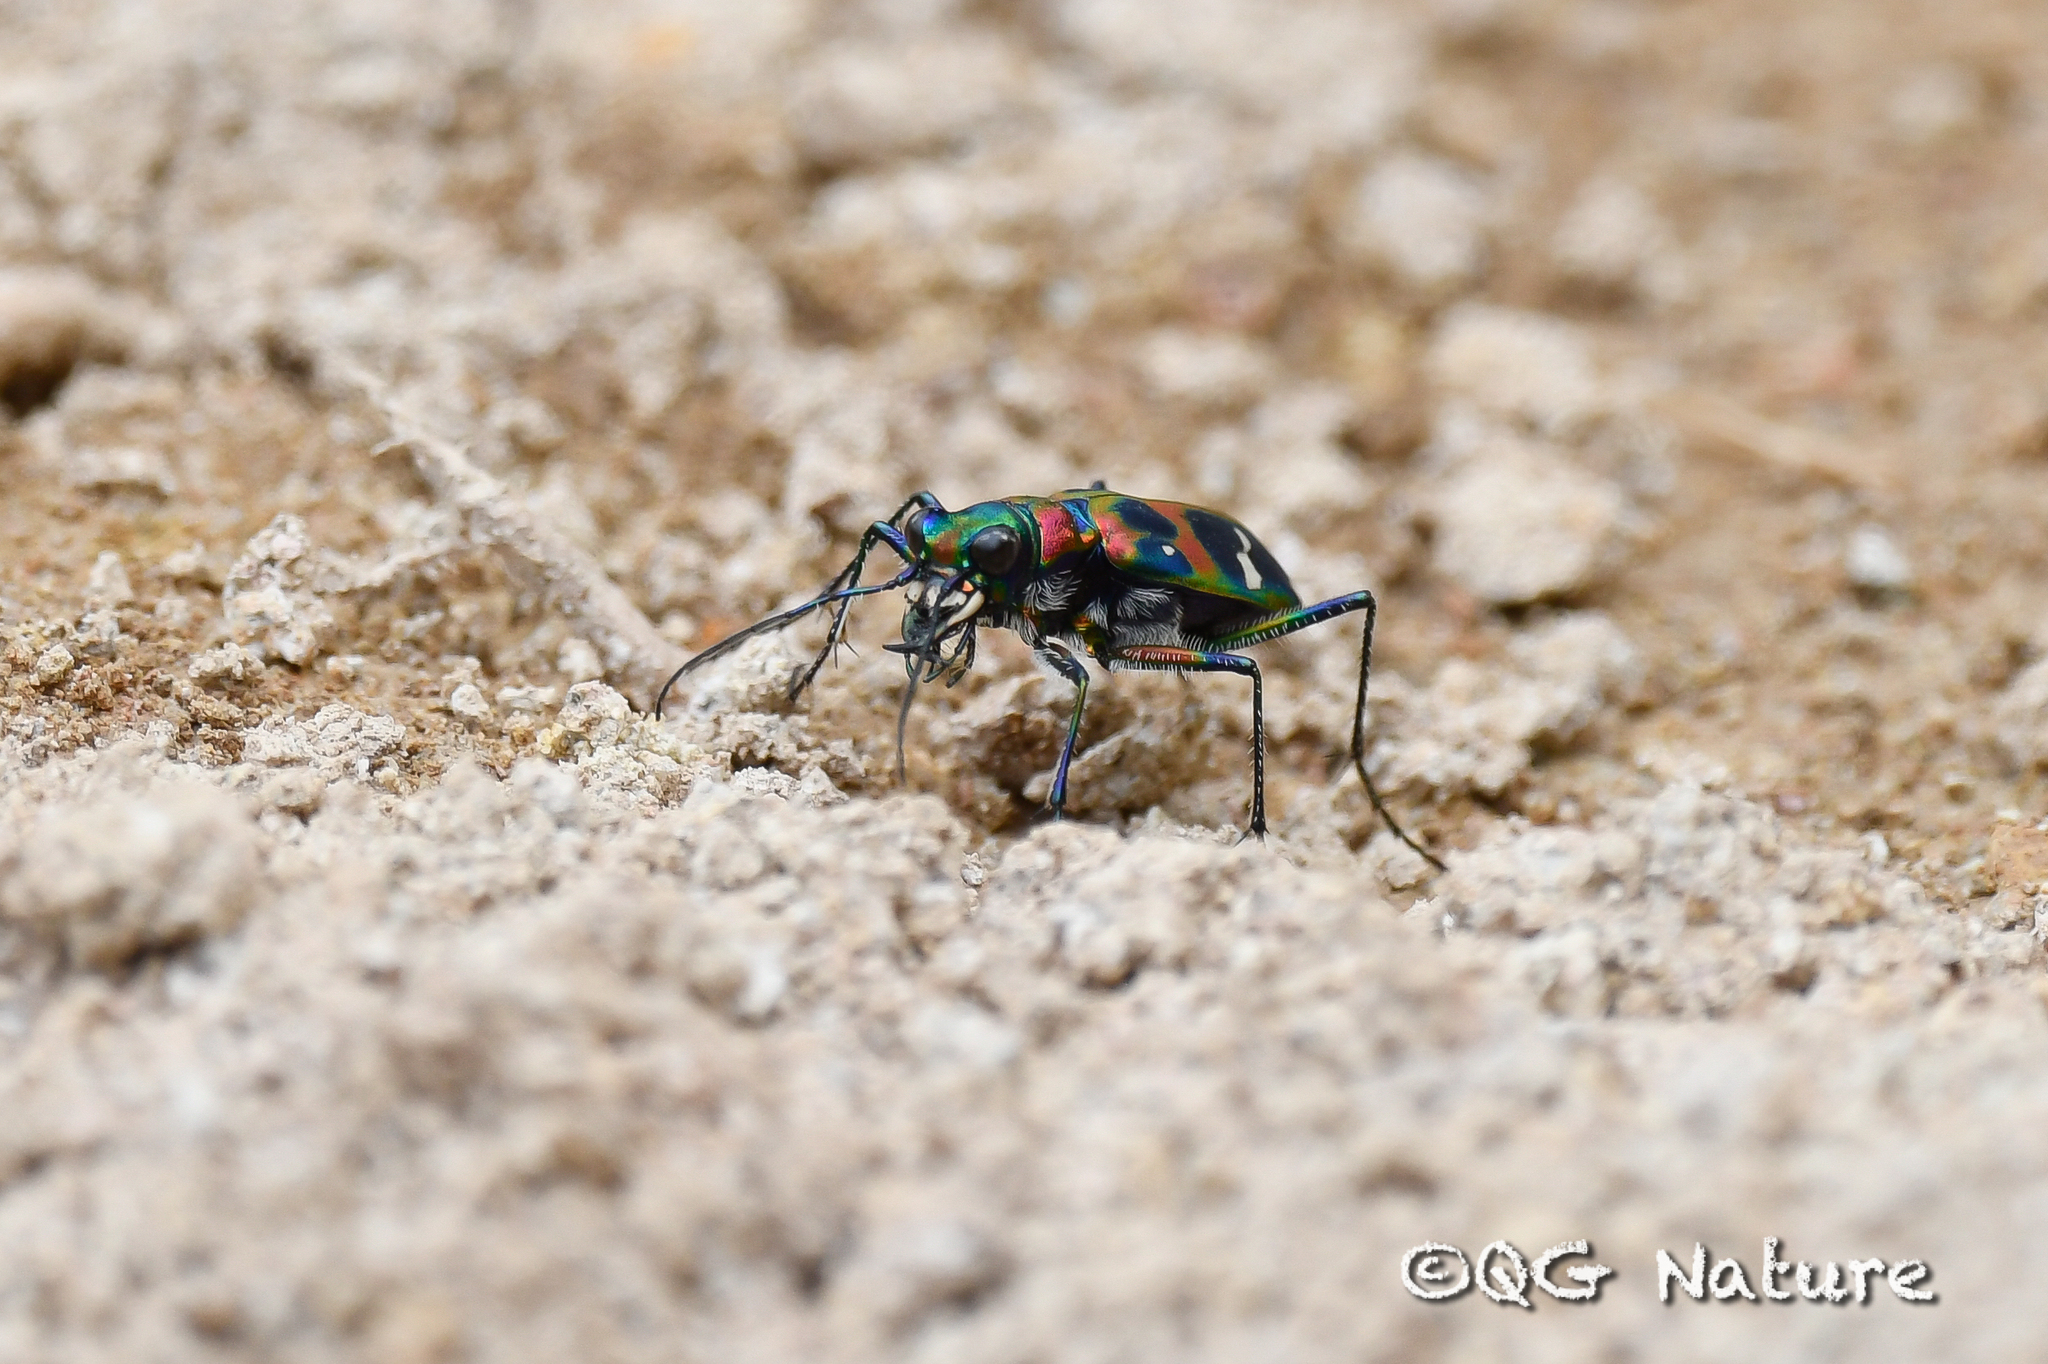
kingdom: Animalia
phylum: Arthropoda
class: Insecta
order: Coleoptera
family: Carabidae
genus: Cicindela
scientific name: Cicindela chinensis
